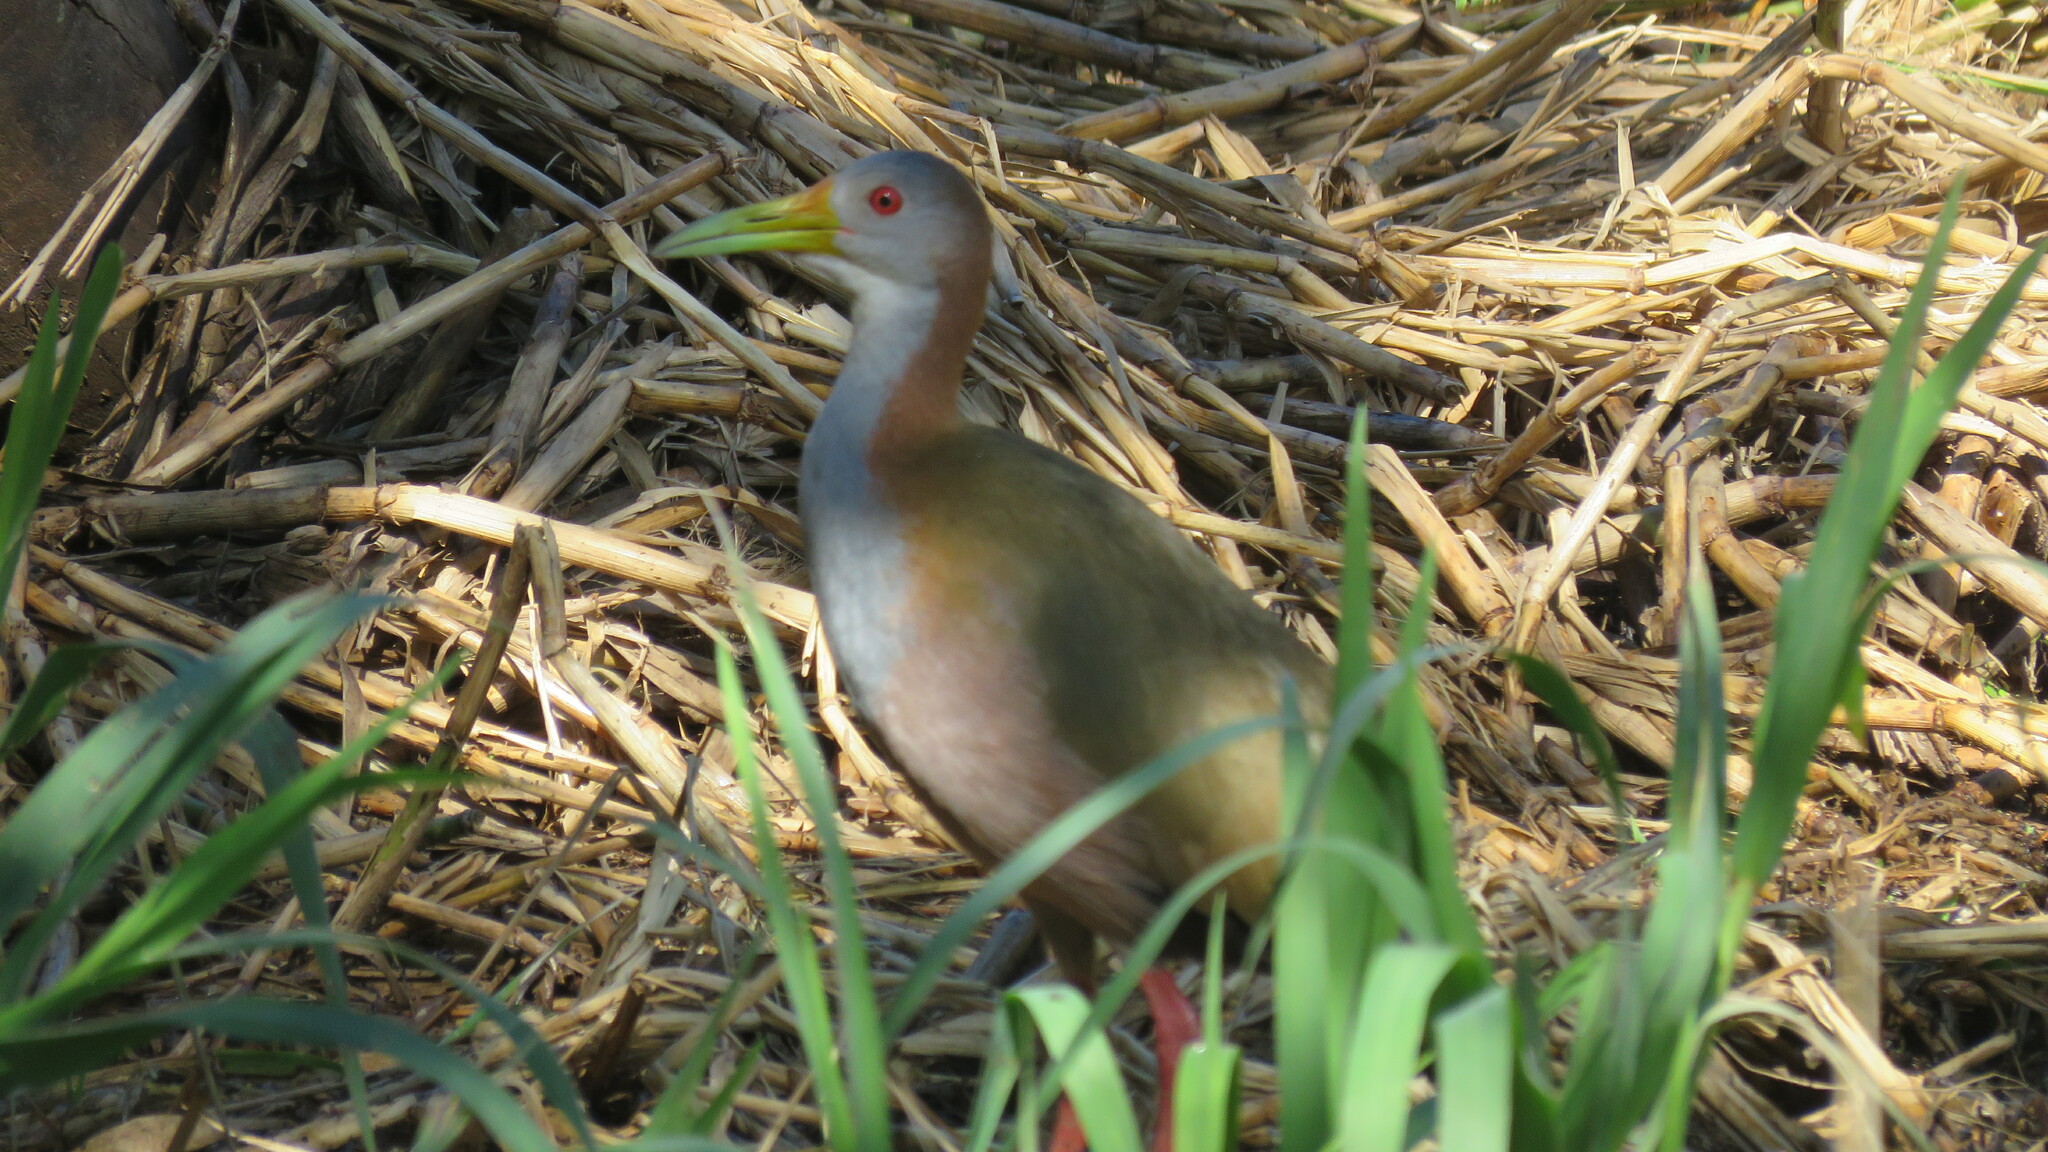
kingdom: Animalia
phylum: Chordata
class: Aves
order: Gruiformes
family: Rallidae
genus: Aramides
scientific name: Aramides ypecaha
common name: Giant wood rail
